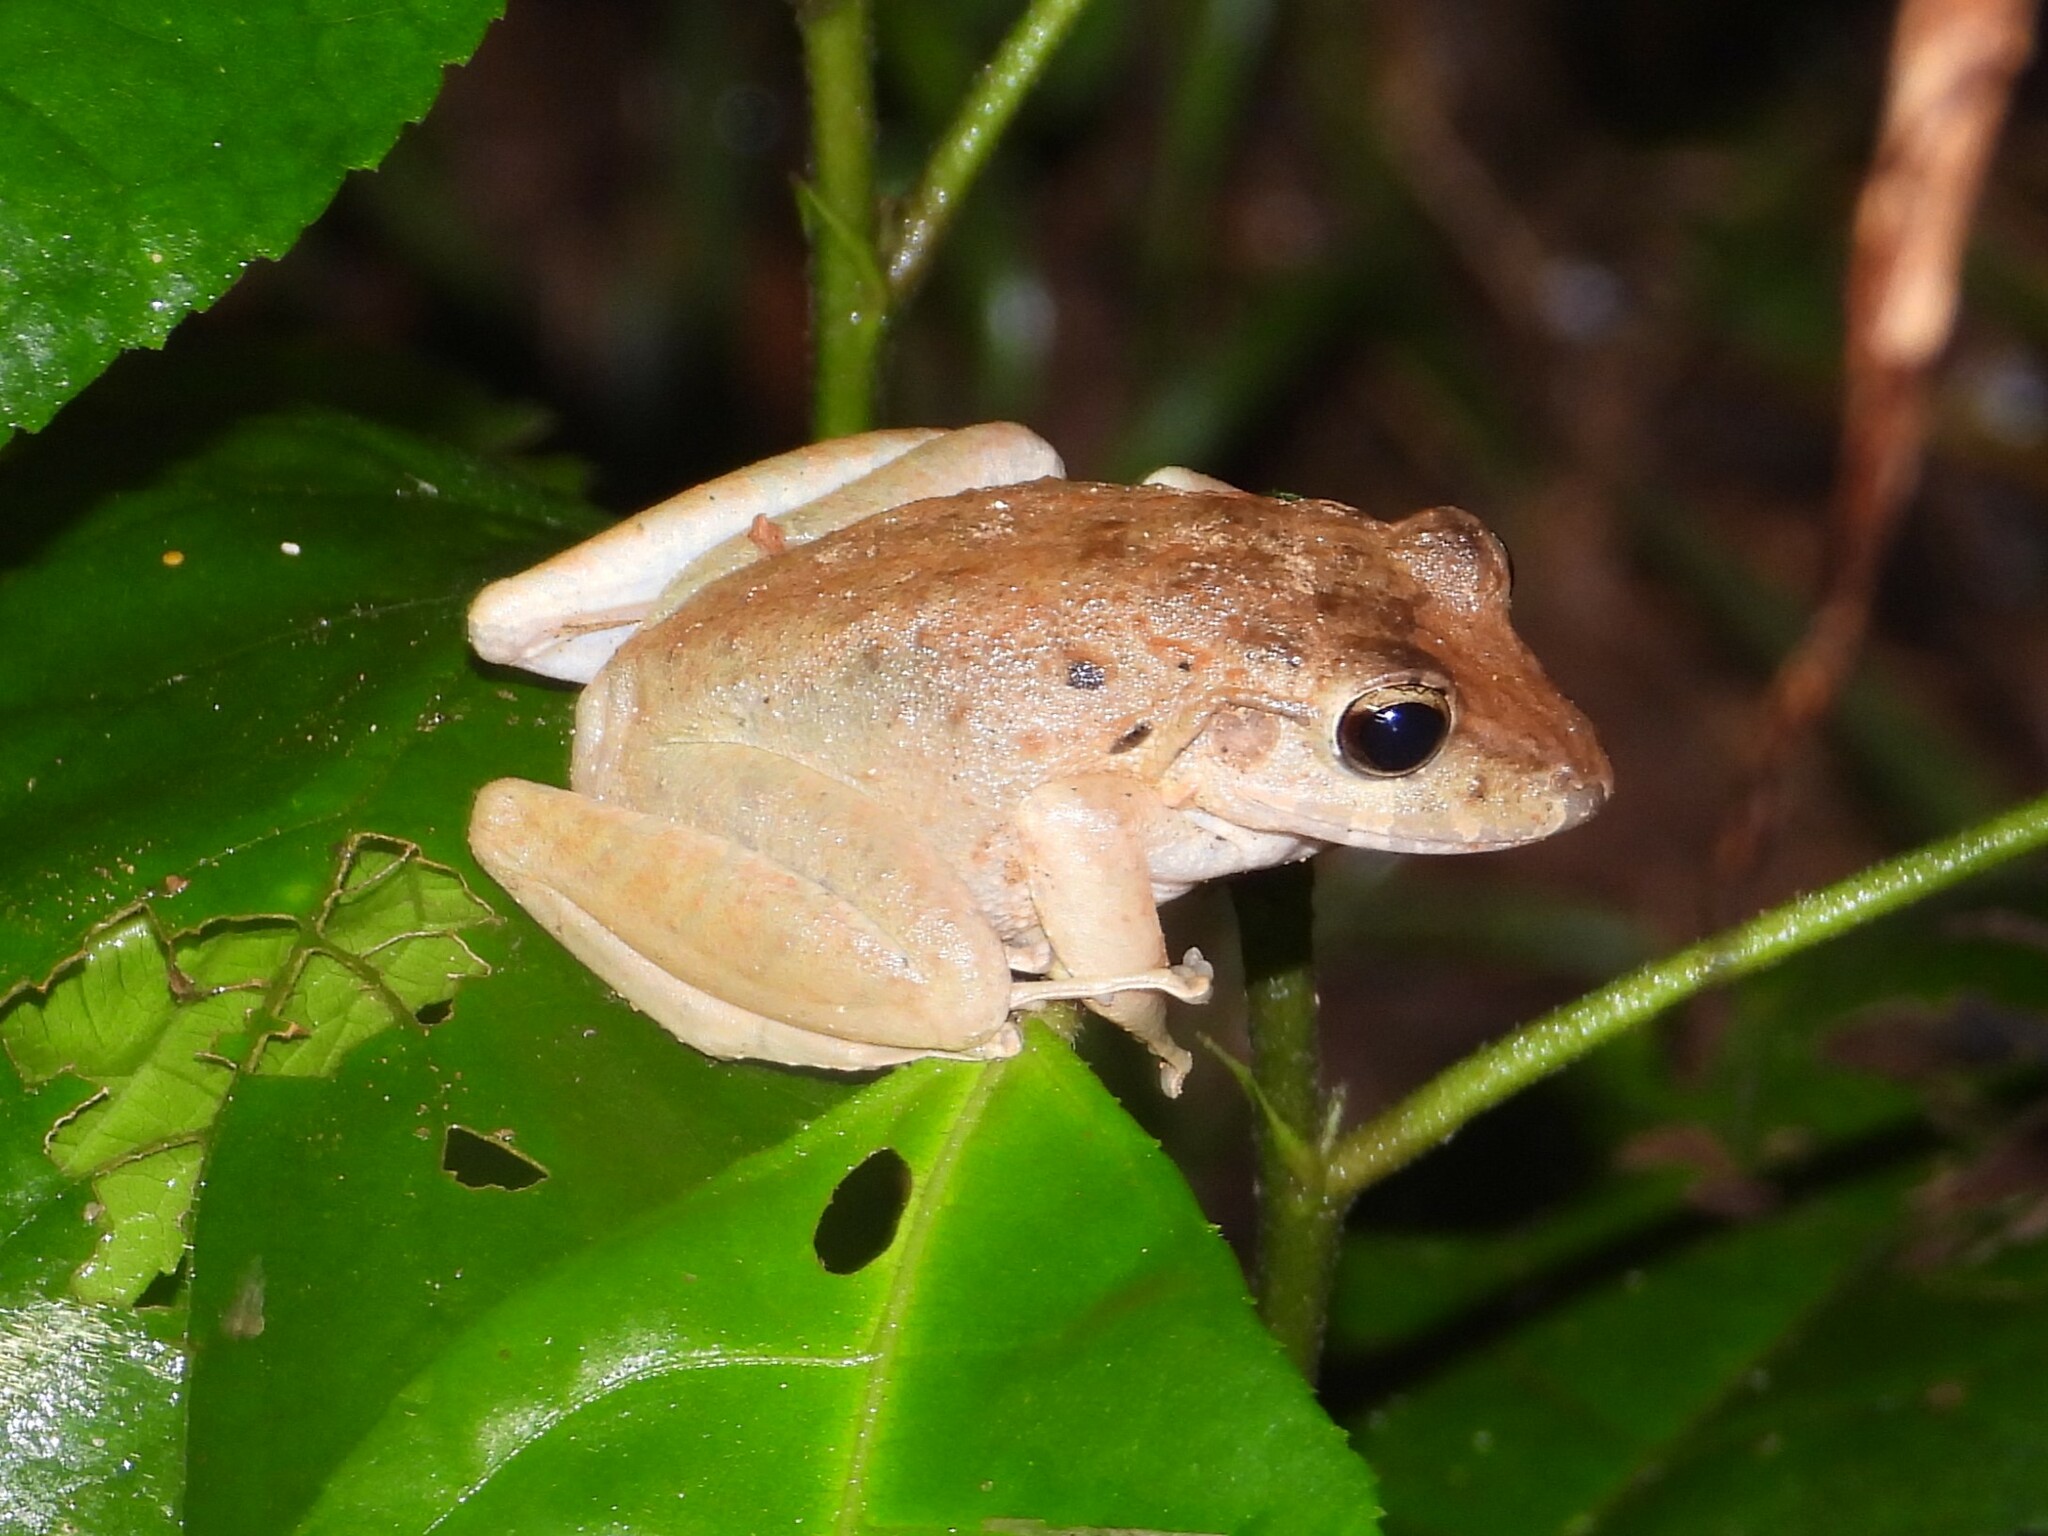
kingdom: Animalia
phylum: Chordata
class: Amphibia
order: Anura
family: Craugastoridae
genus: Craugastor
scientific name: Craugastor crassidigitus
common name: Isla bonita robber frog
